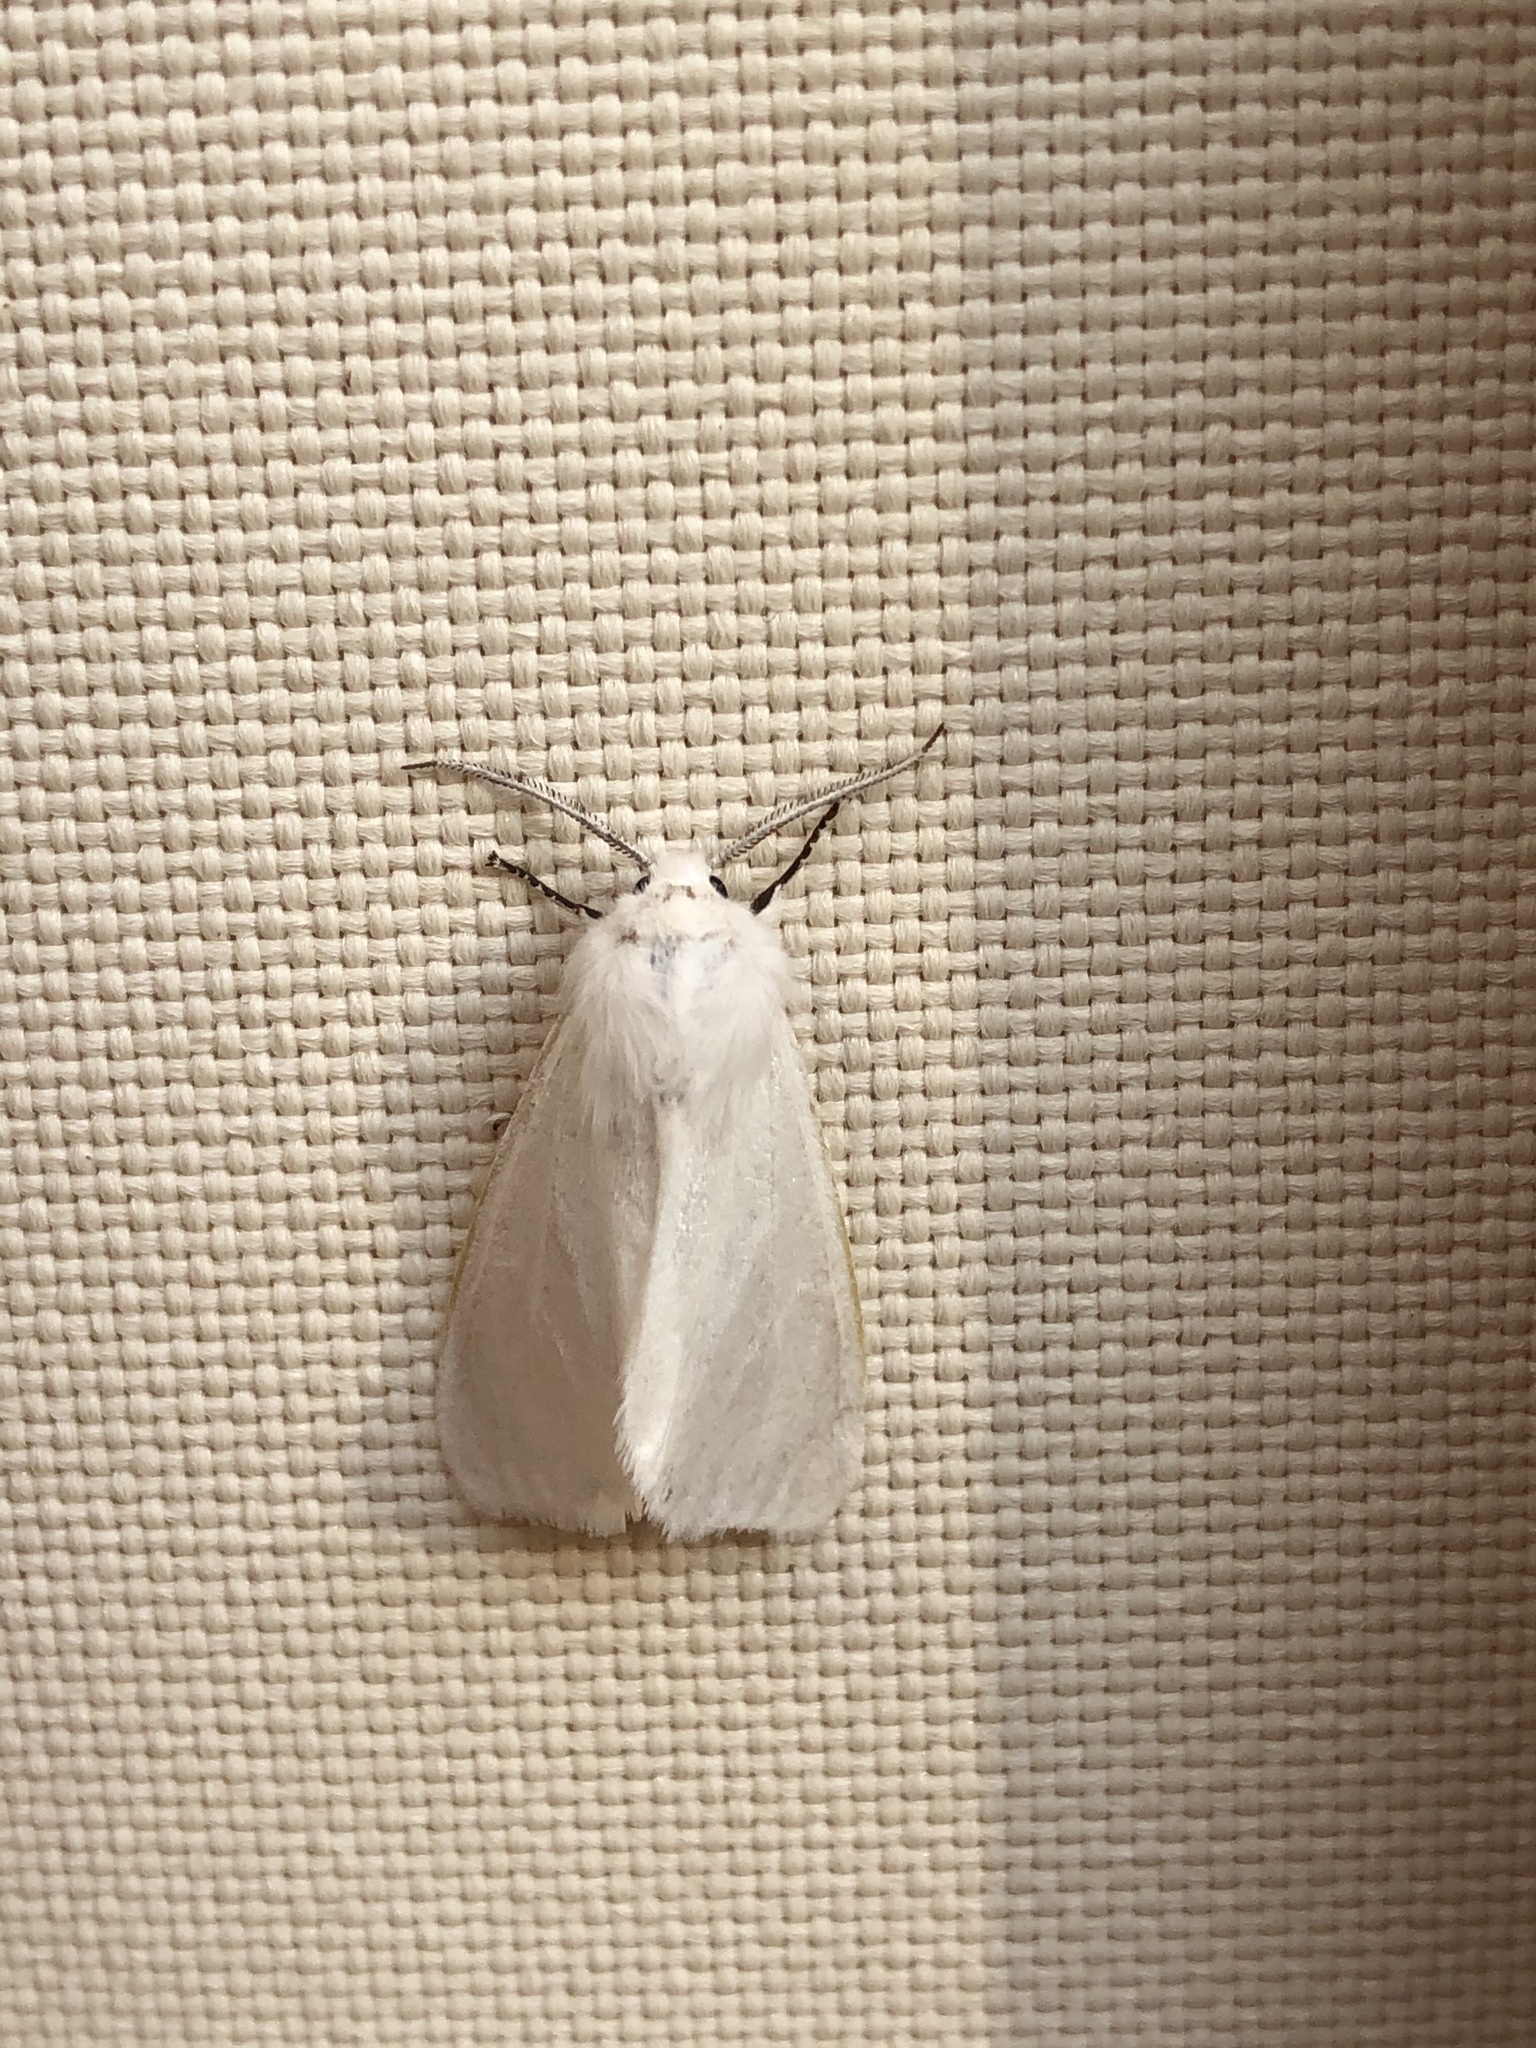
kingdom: Animalia
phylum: Arthropoda
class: Insecta
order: Lepidoptera
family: Erebidae
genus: Hyphantria
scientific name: Hyphantria cunea
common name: American white moth
